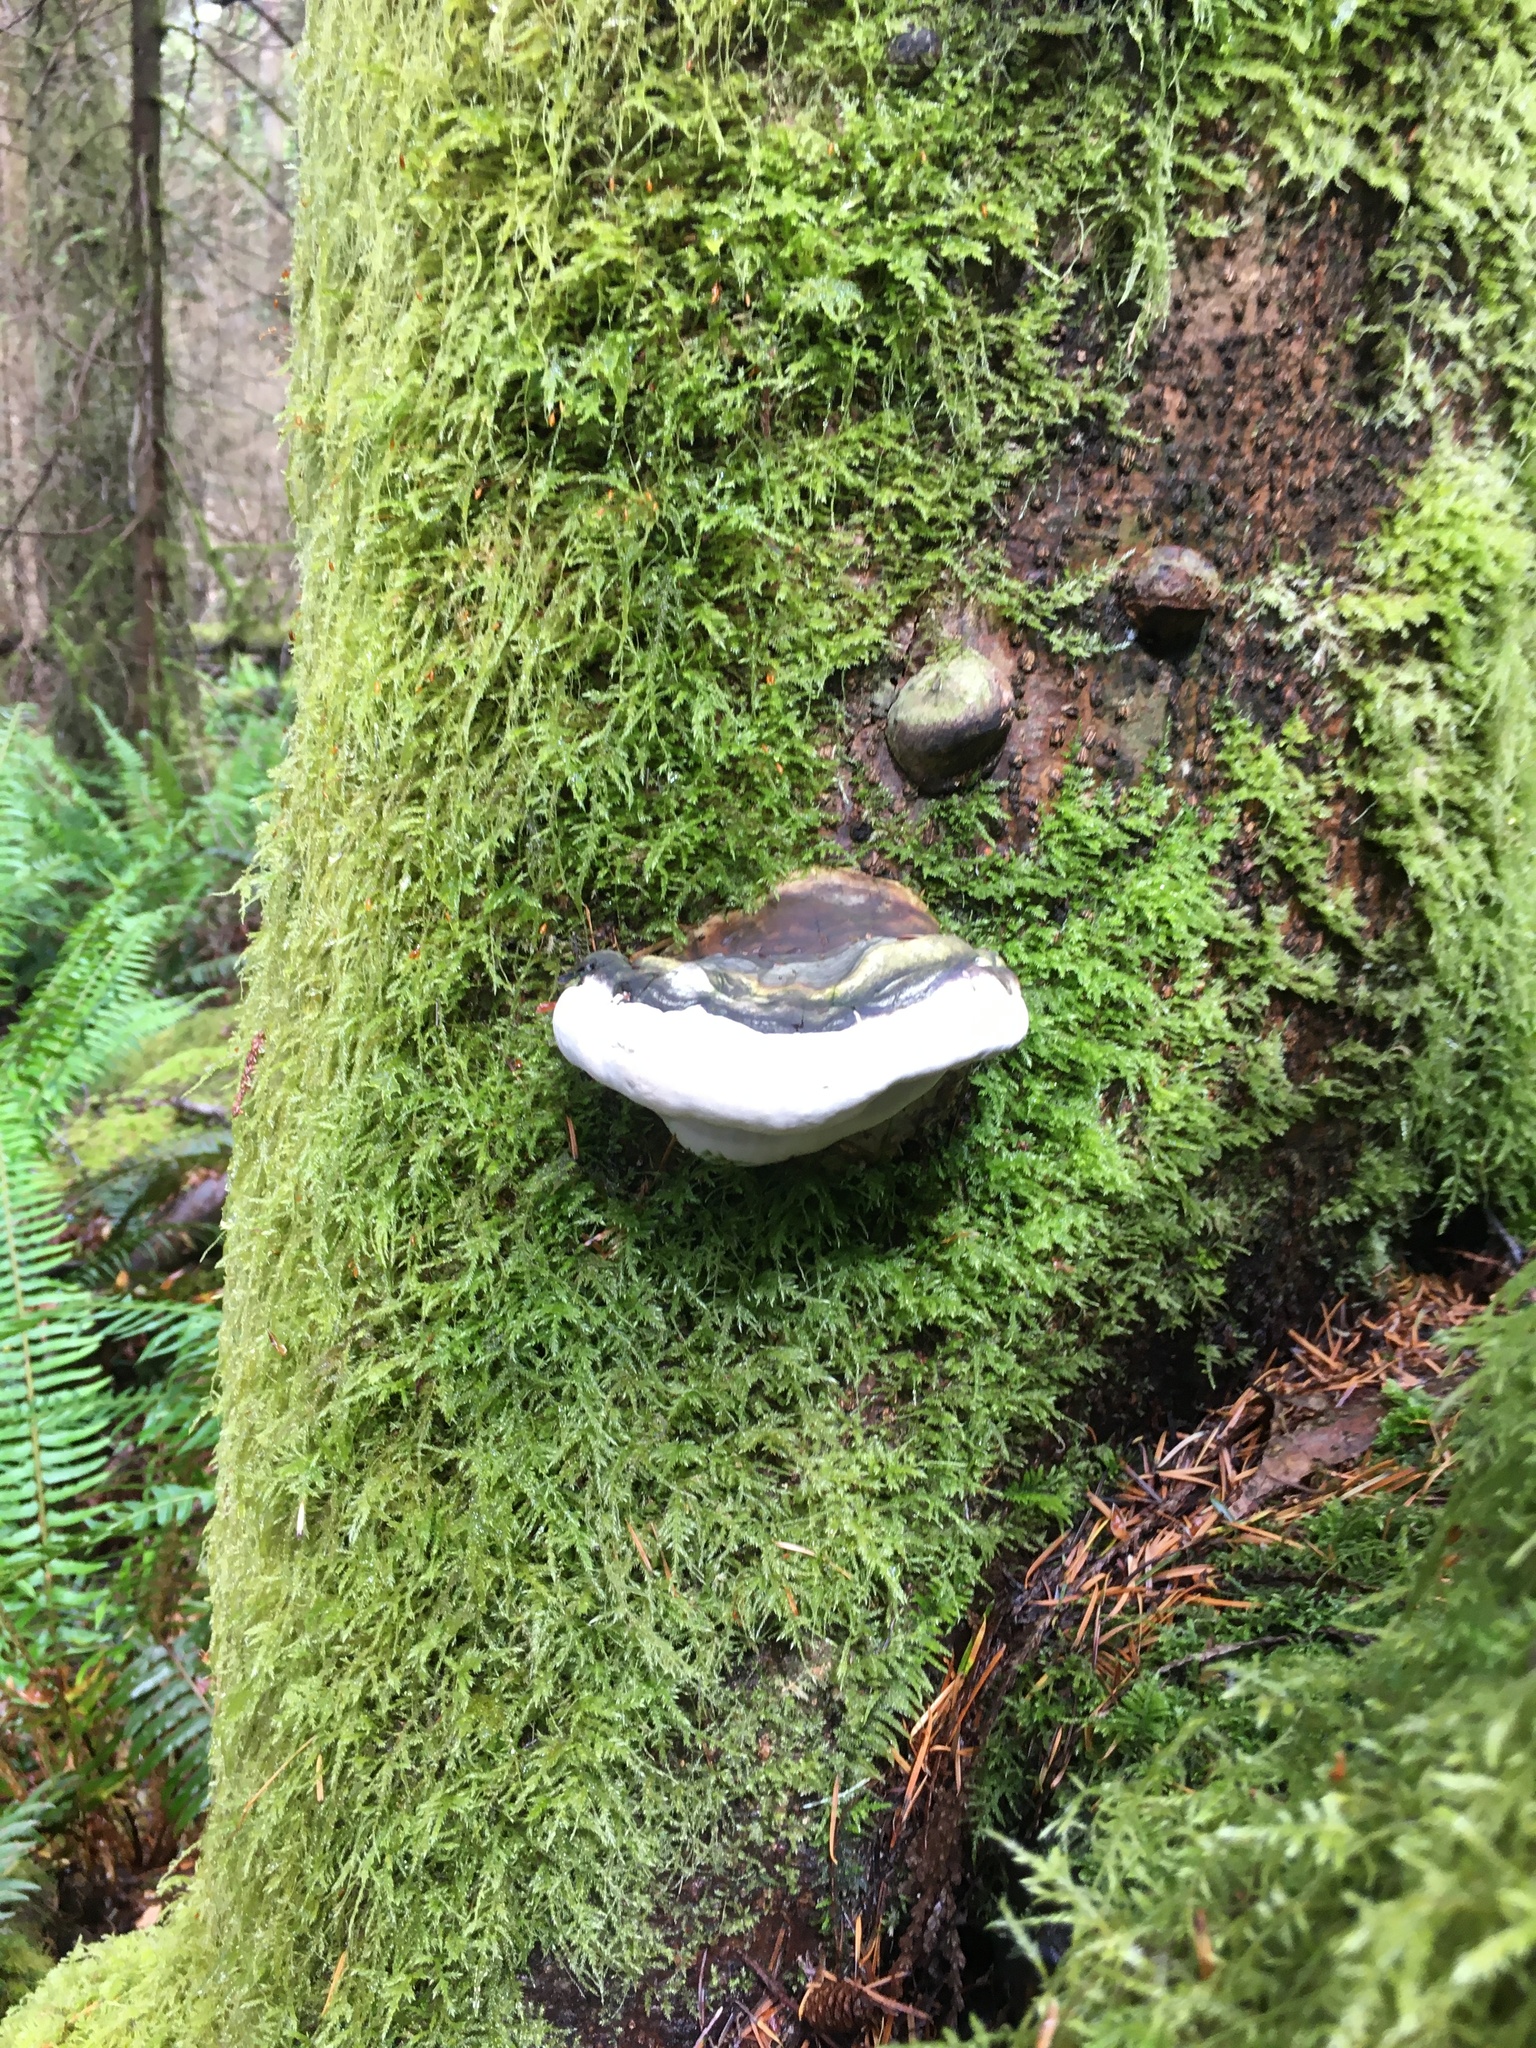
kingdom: Fungi
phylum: Basidiomycota
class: Agaricomycetes
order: Polyporales
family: Fomitopsidaceae
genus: Fomitopsis
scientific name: Fomitopsis ochracea
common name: American brown fomitopsis
